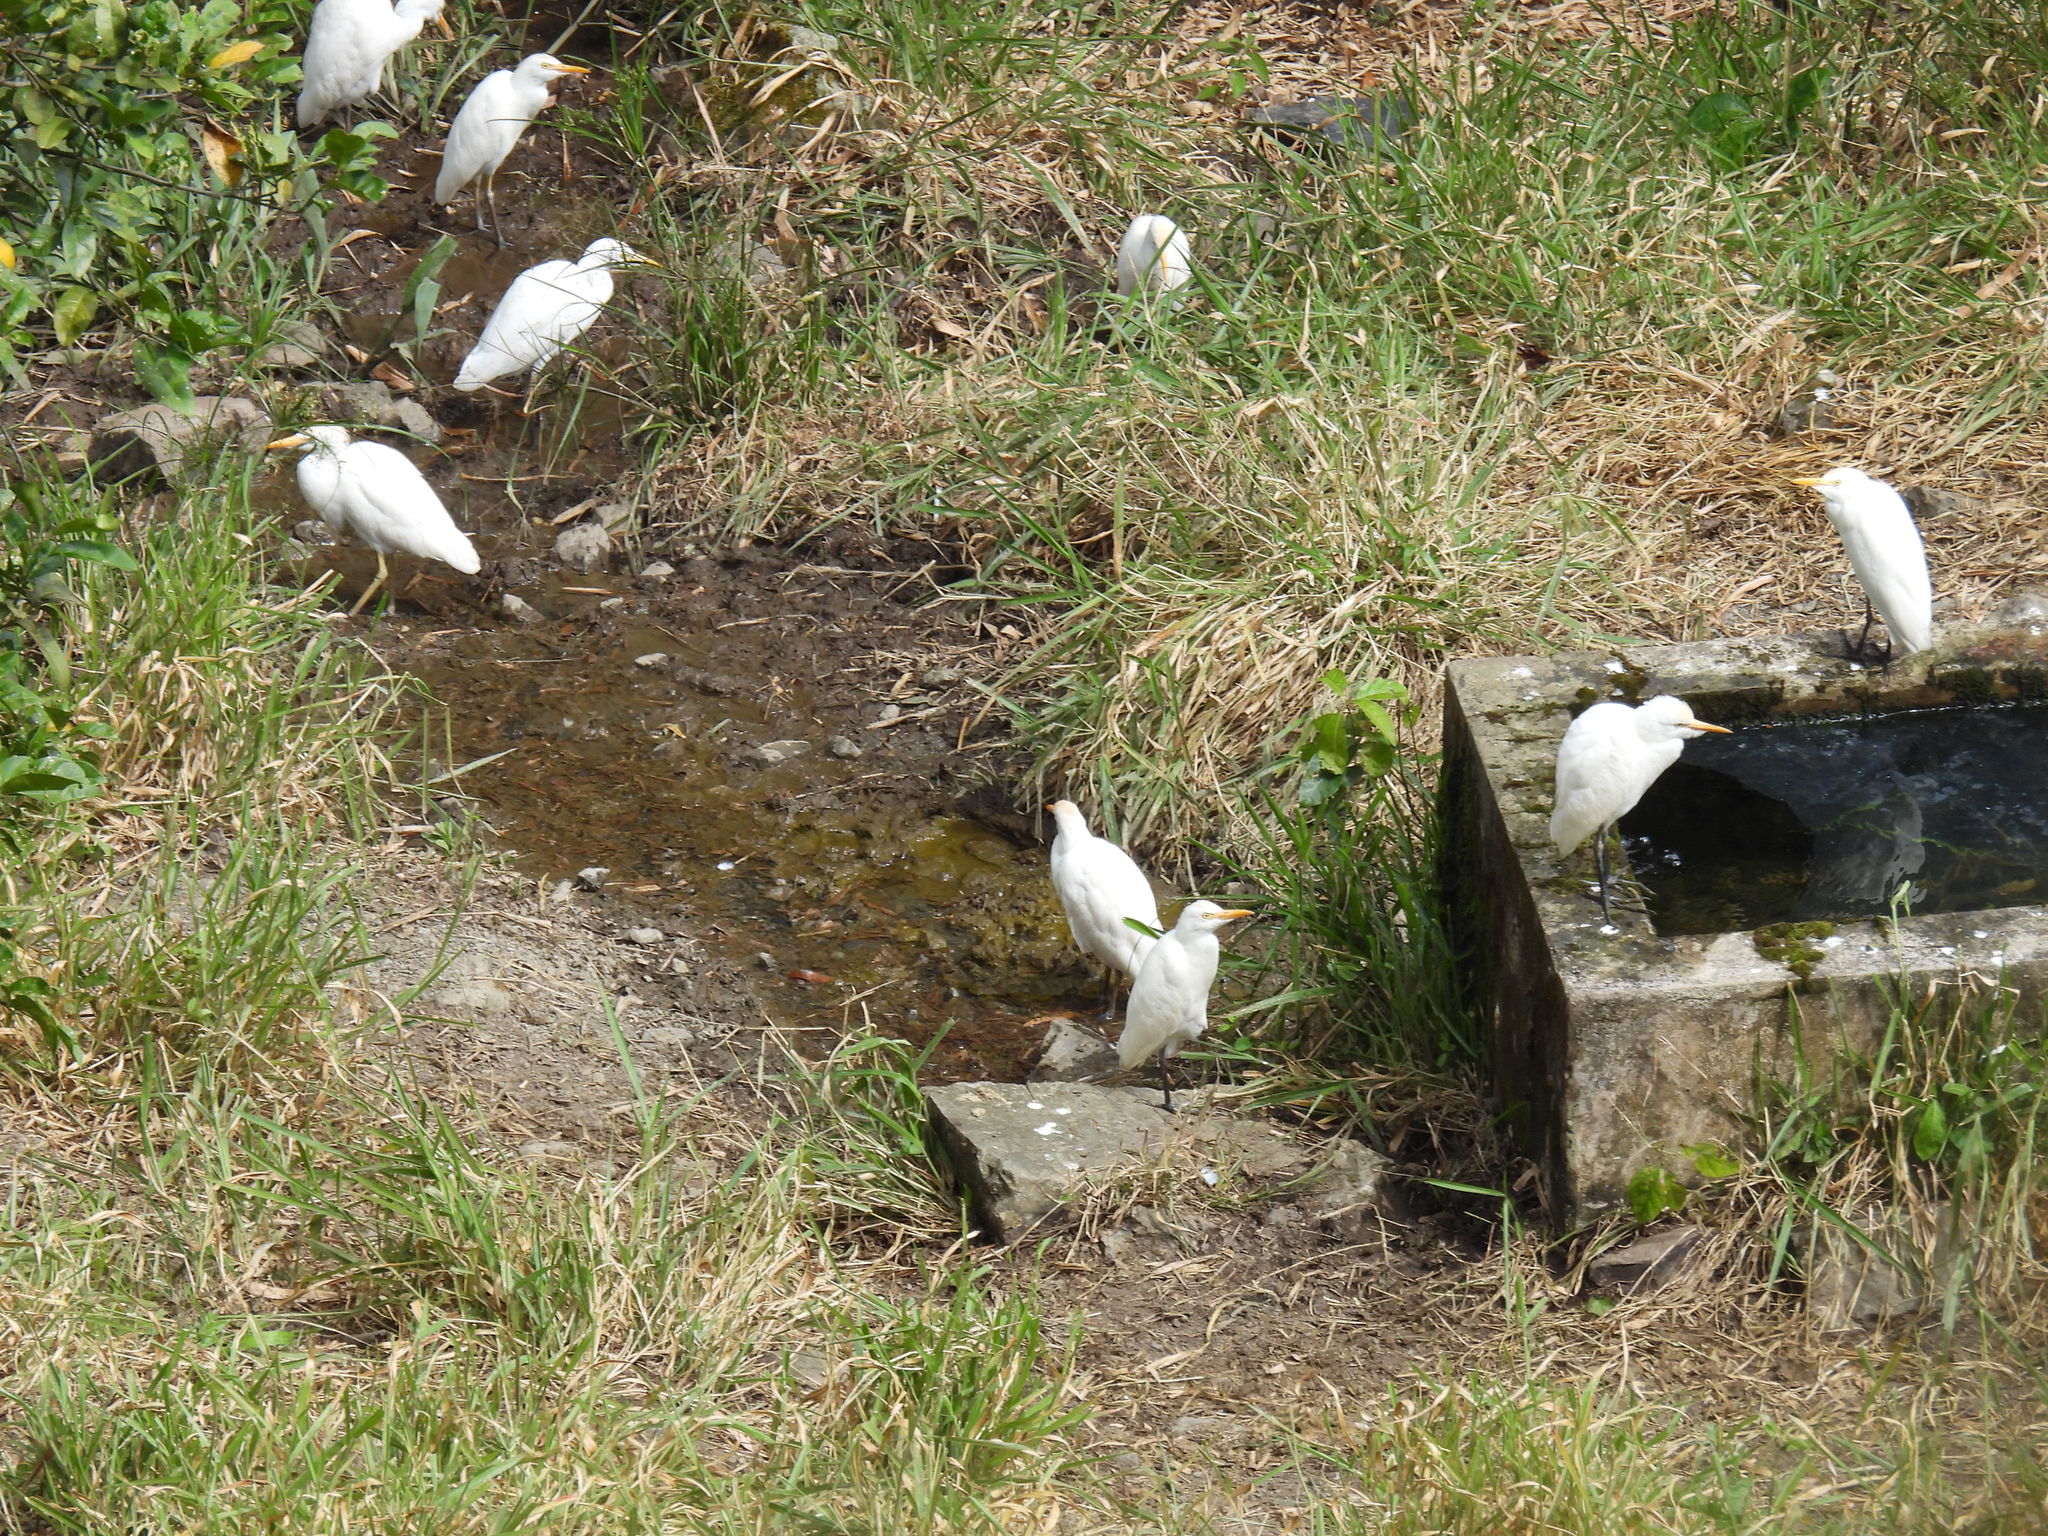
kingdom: Animalia
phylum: Chordata
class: Aves
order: Pelecaniformes
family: Ardeidae
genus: Bubulcus
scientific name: Bubulcus ibis
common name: Cattle egret
